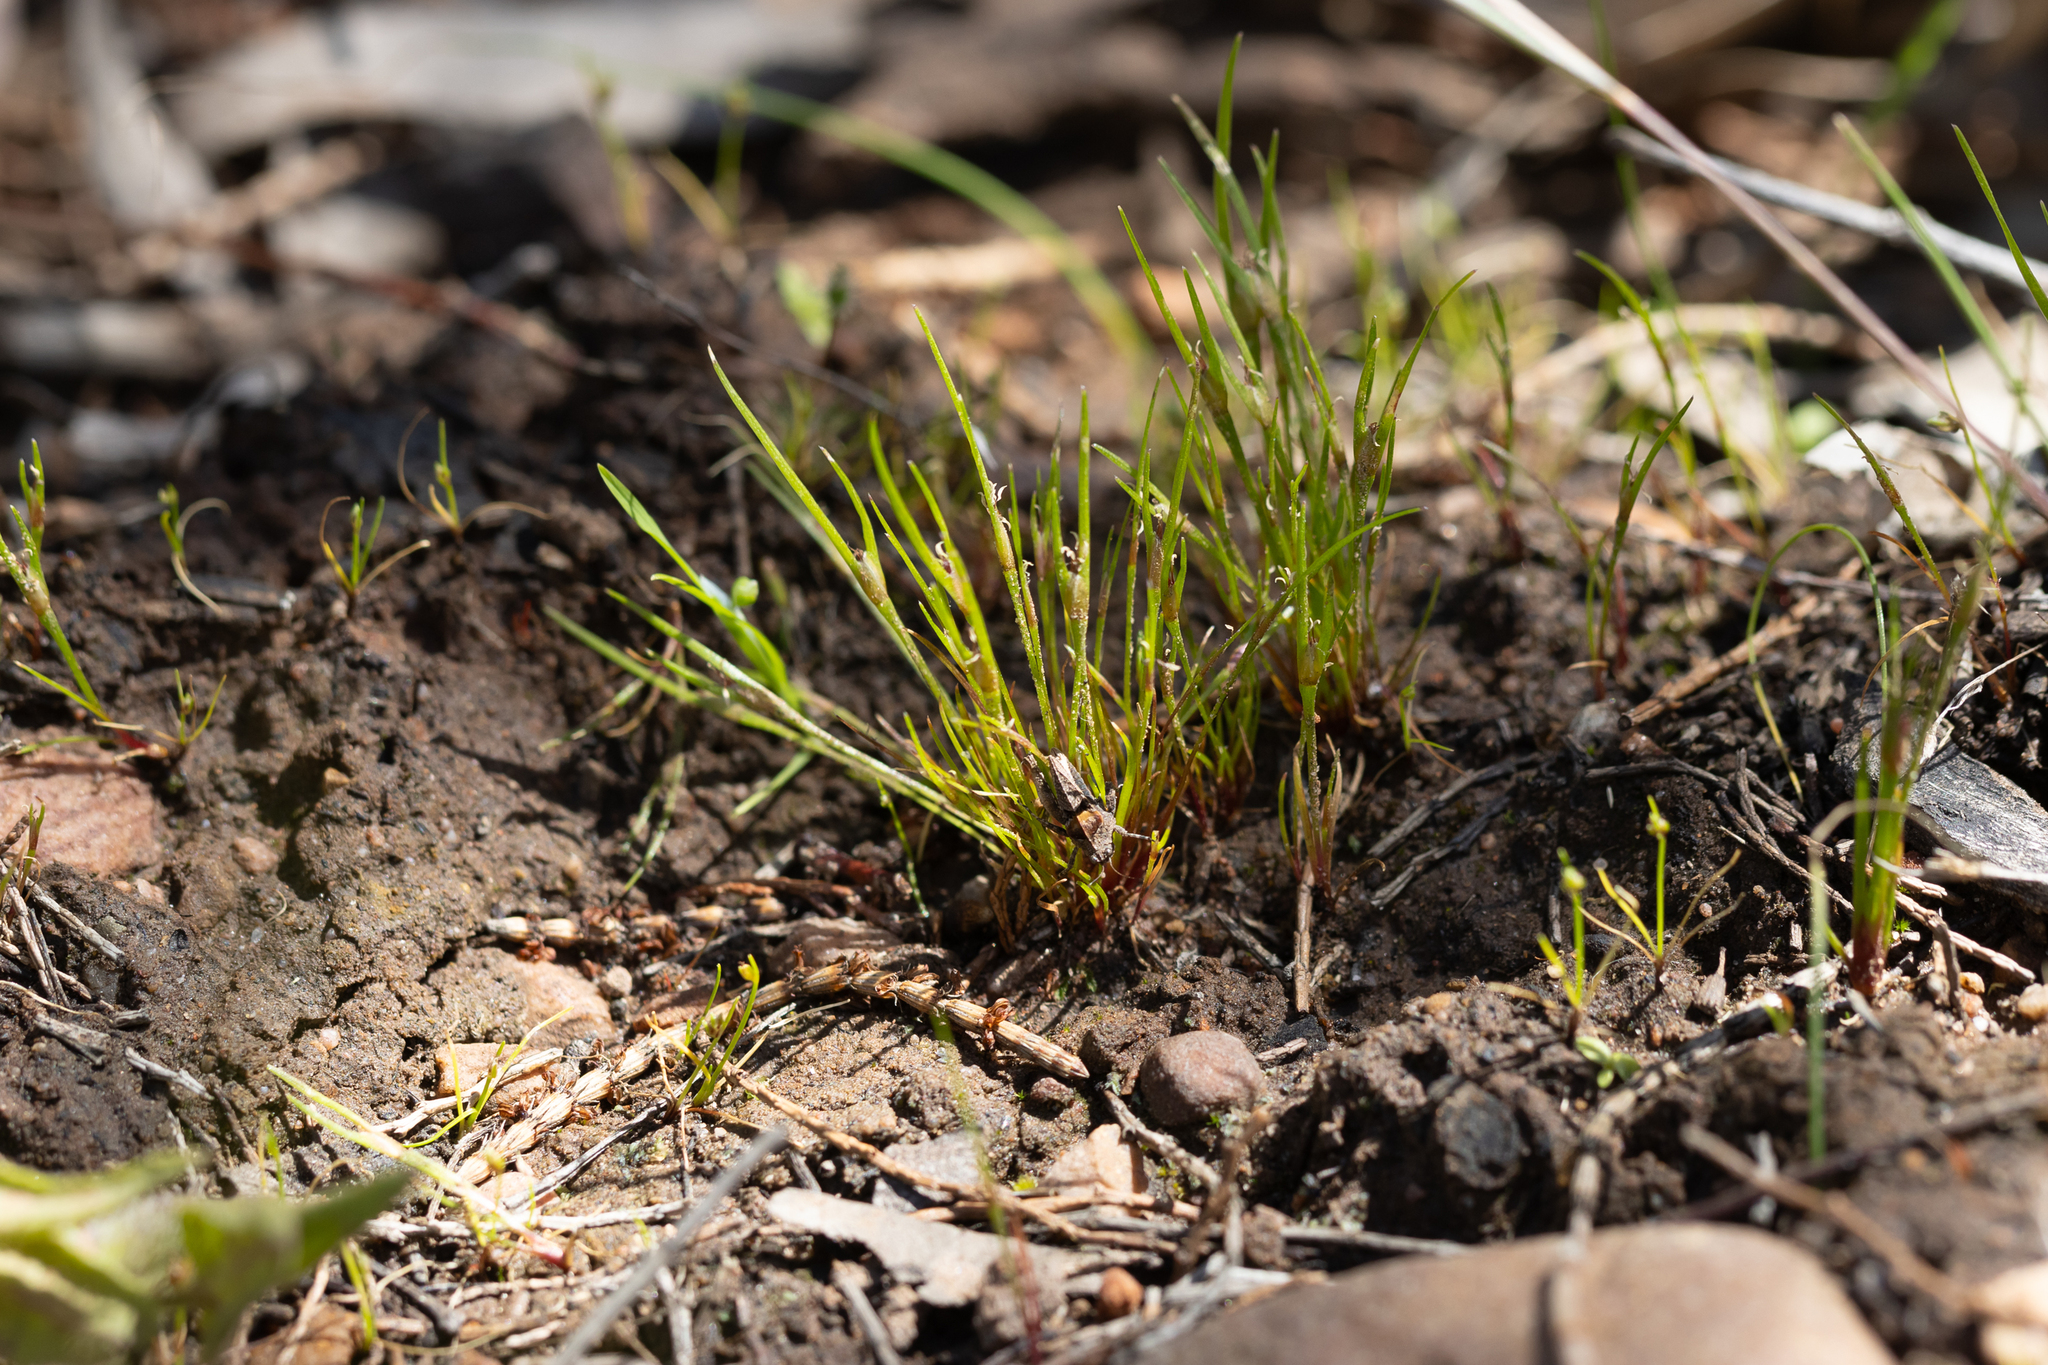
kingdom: Plantae
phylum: Tracheophyta
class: Liliopsida
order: Poales
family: Restionaceae
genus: Centrolepis
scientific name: Centrolepis aristata
